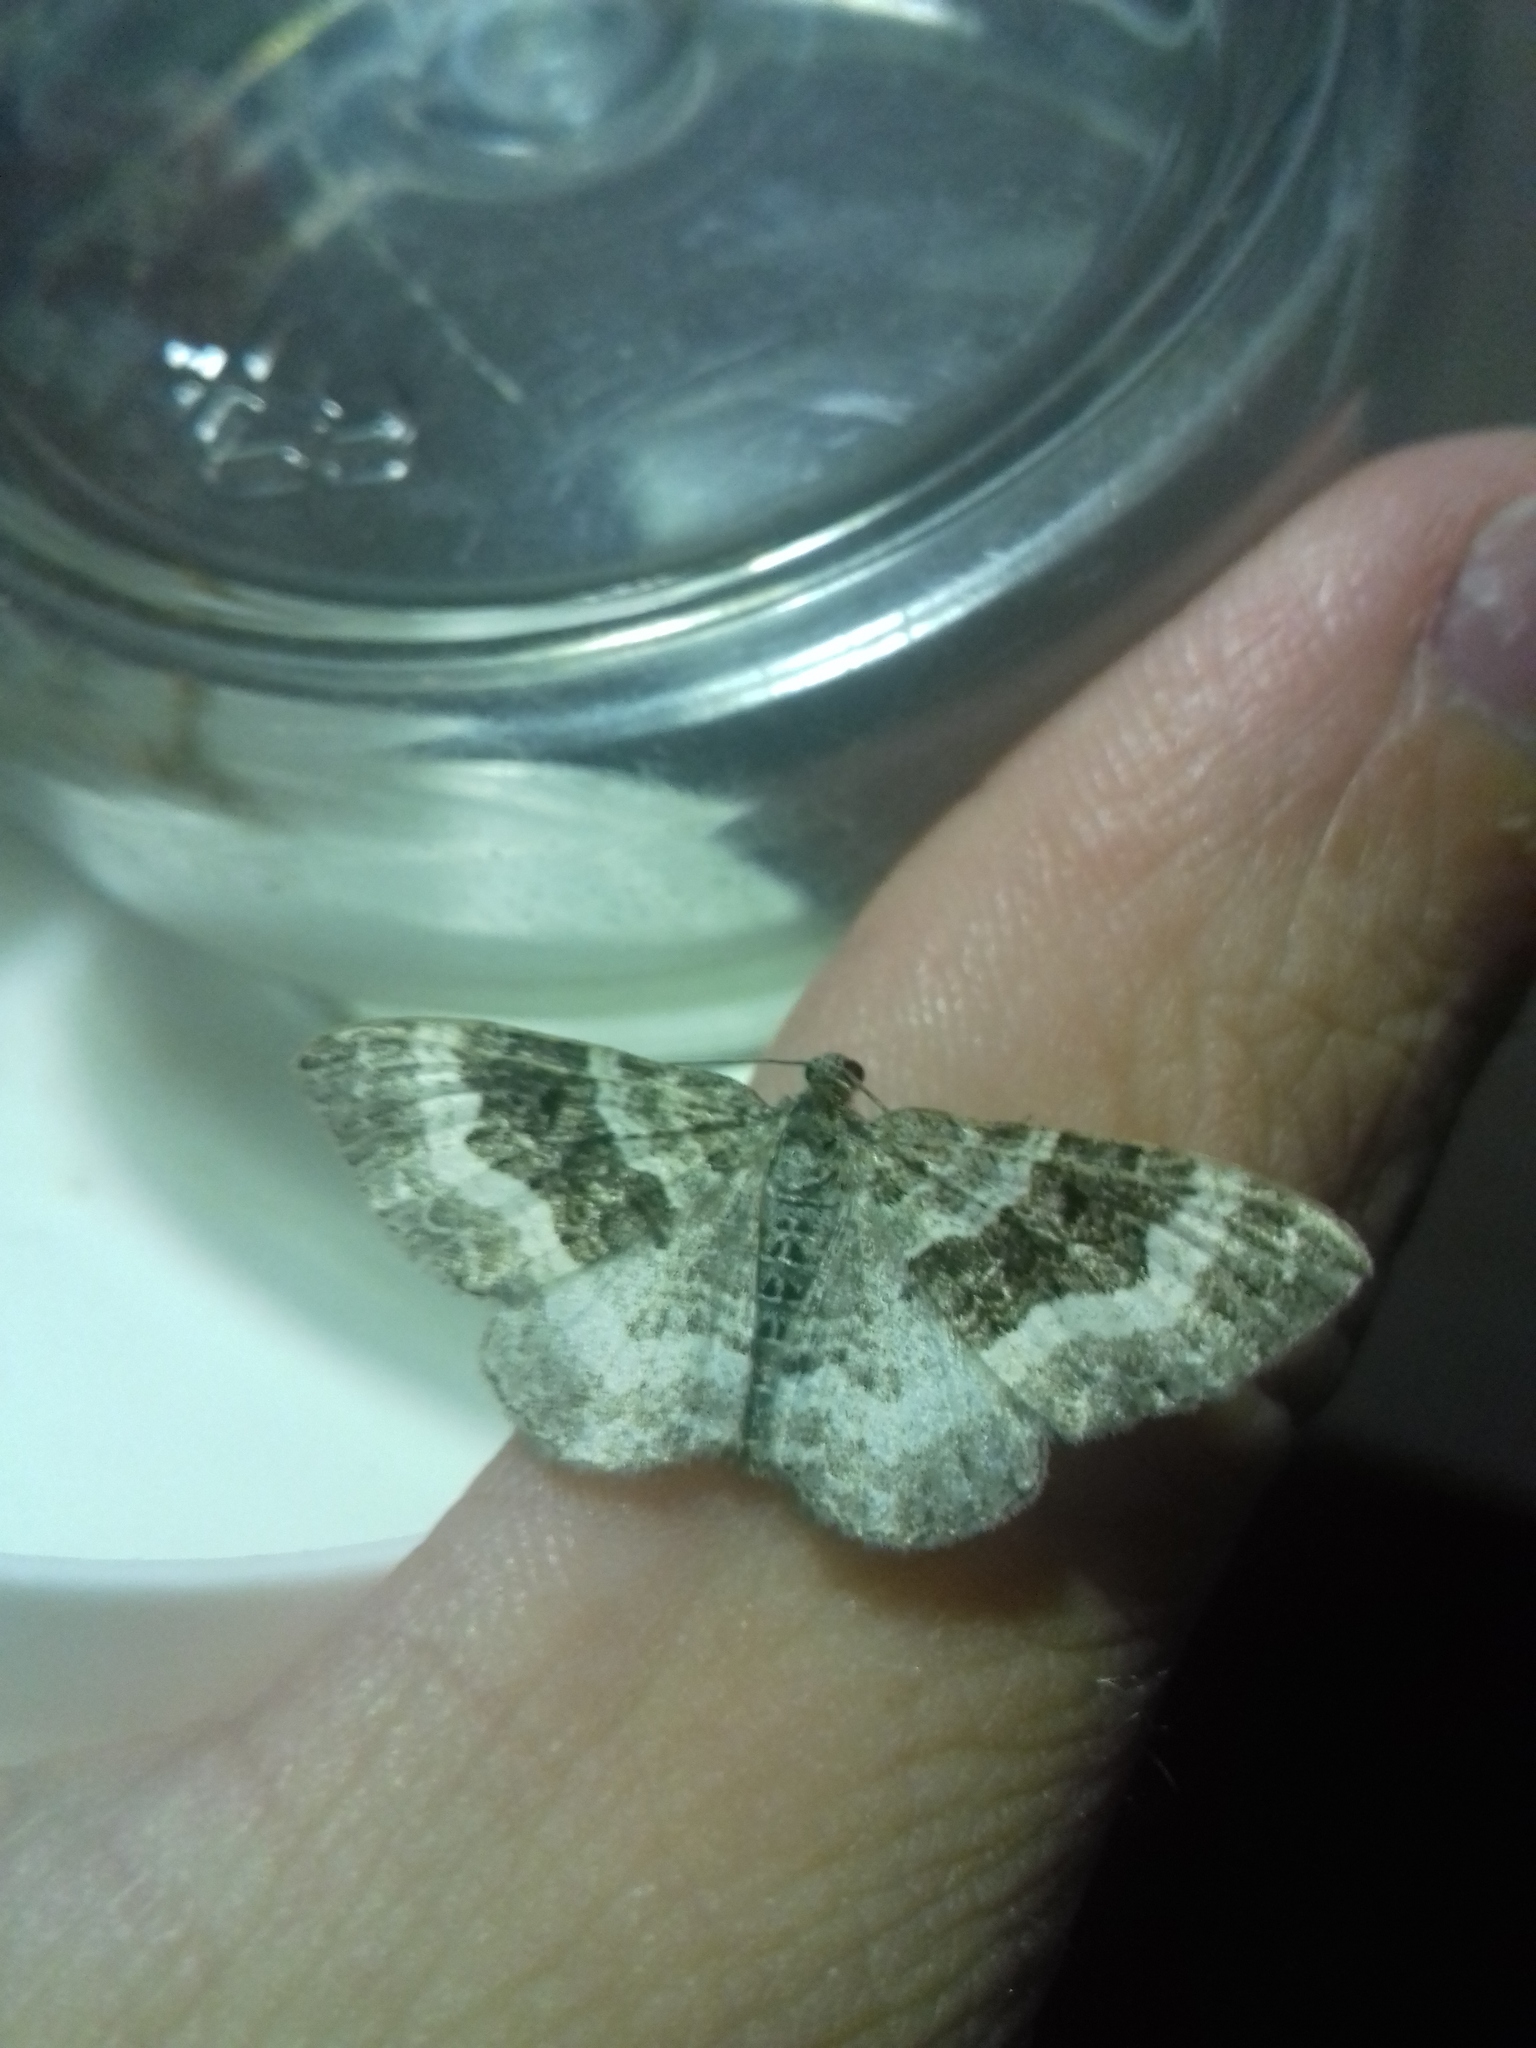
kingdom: Animalia
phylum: Arthropoda
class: Insecta
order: Lepidoptera
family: Geometridae
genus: Epirrhoe
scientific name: Epirrhoe alternata
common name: Common carpet
